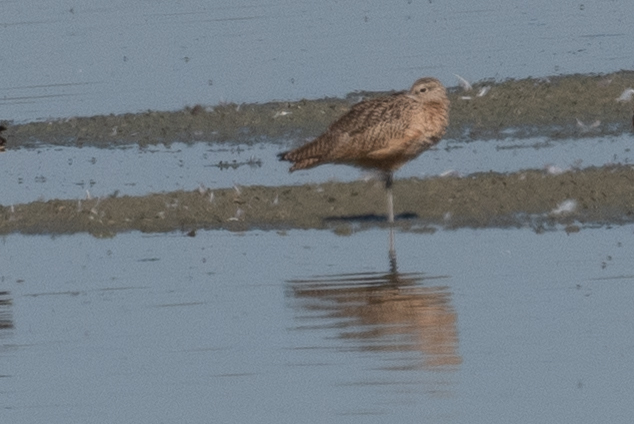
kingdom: Animalia
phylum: Chordata
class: Aves
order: Charadriiformes
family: Scolopacidae
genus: Numenius
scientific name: Numenius americanus
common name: Long-billed curlew
